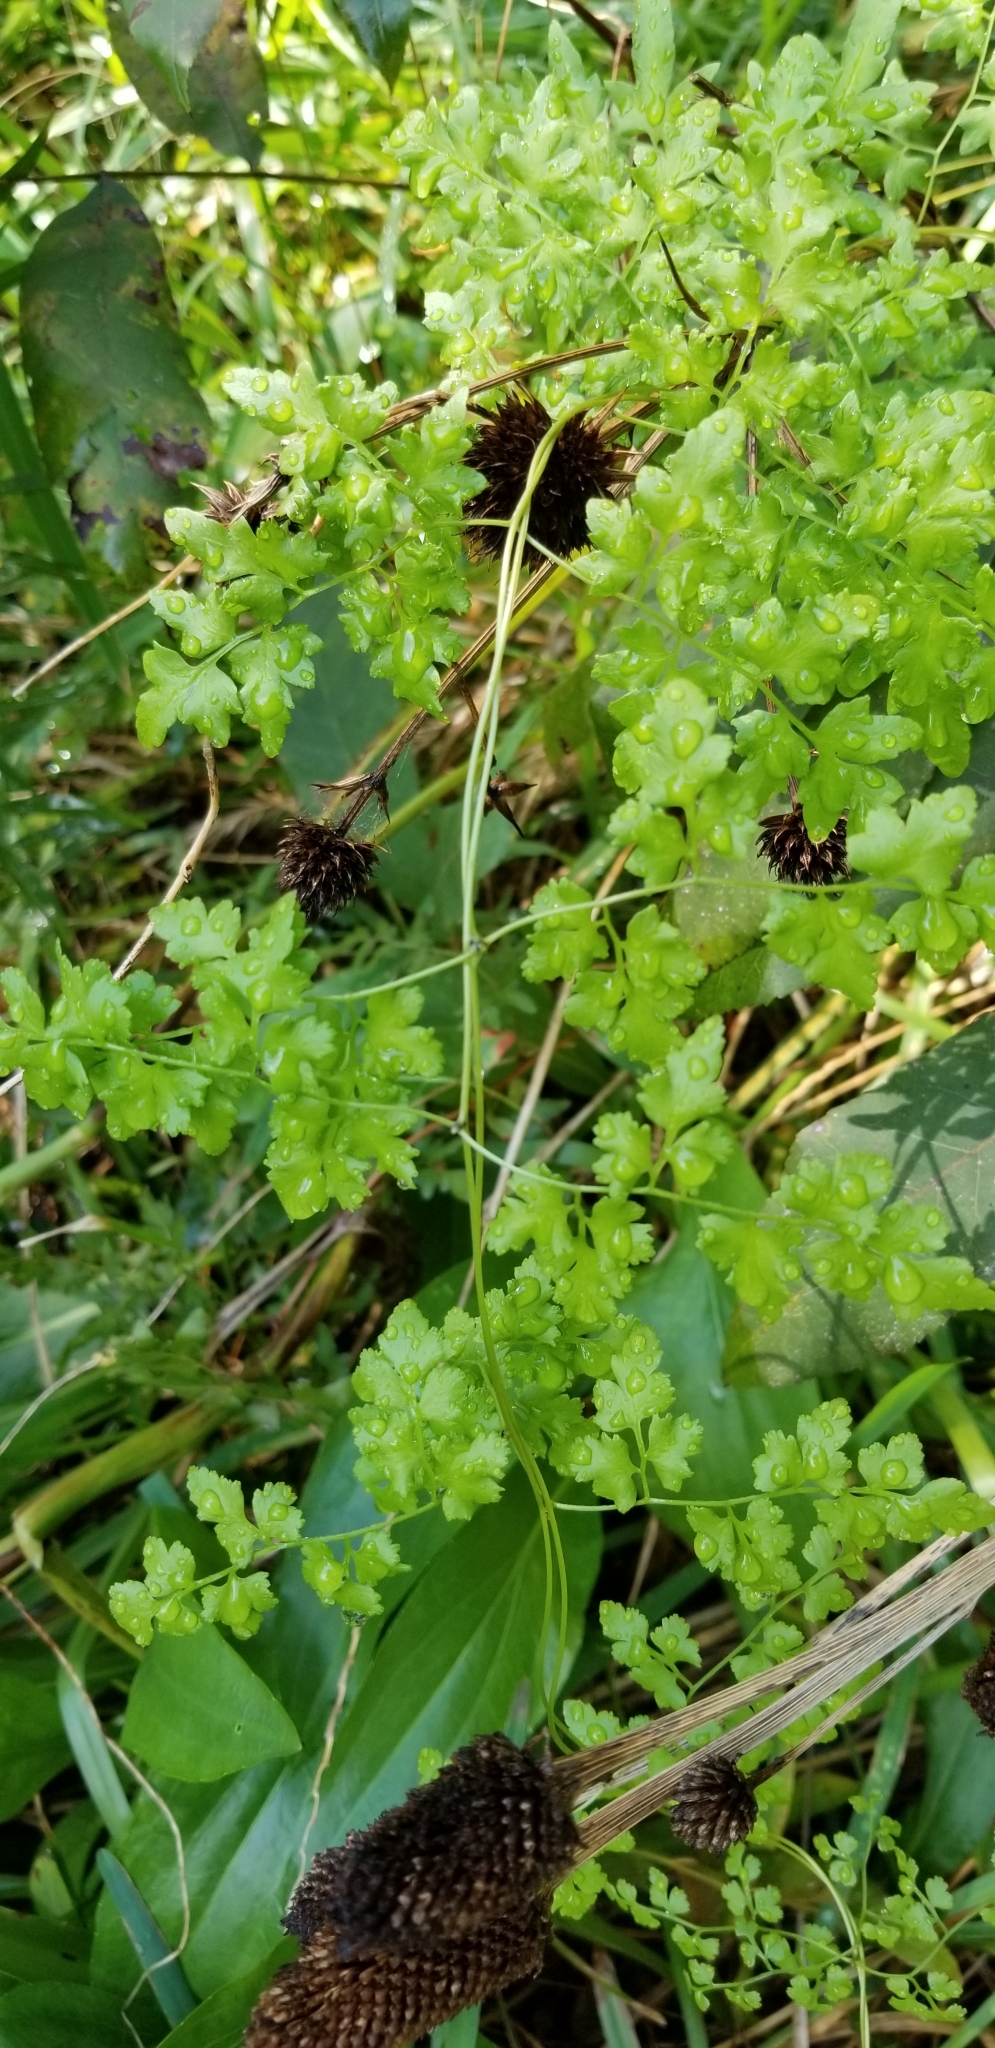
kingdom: Plantae
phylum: Tracheophyta
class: Polypodiopsida
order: Schizaeales
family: Lygodiaceae
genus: Lygodium
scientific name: Lygodium japonicum
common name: Japanese climbing fern
